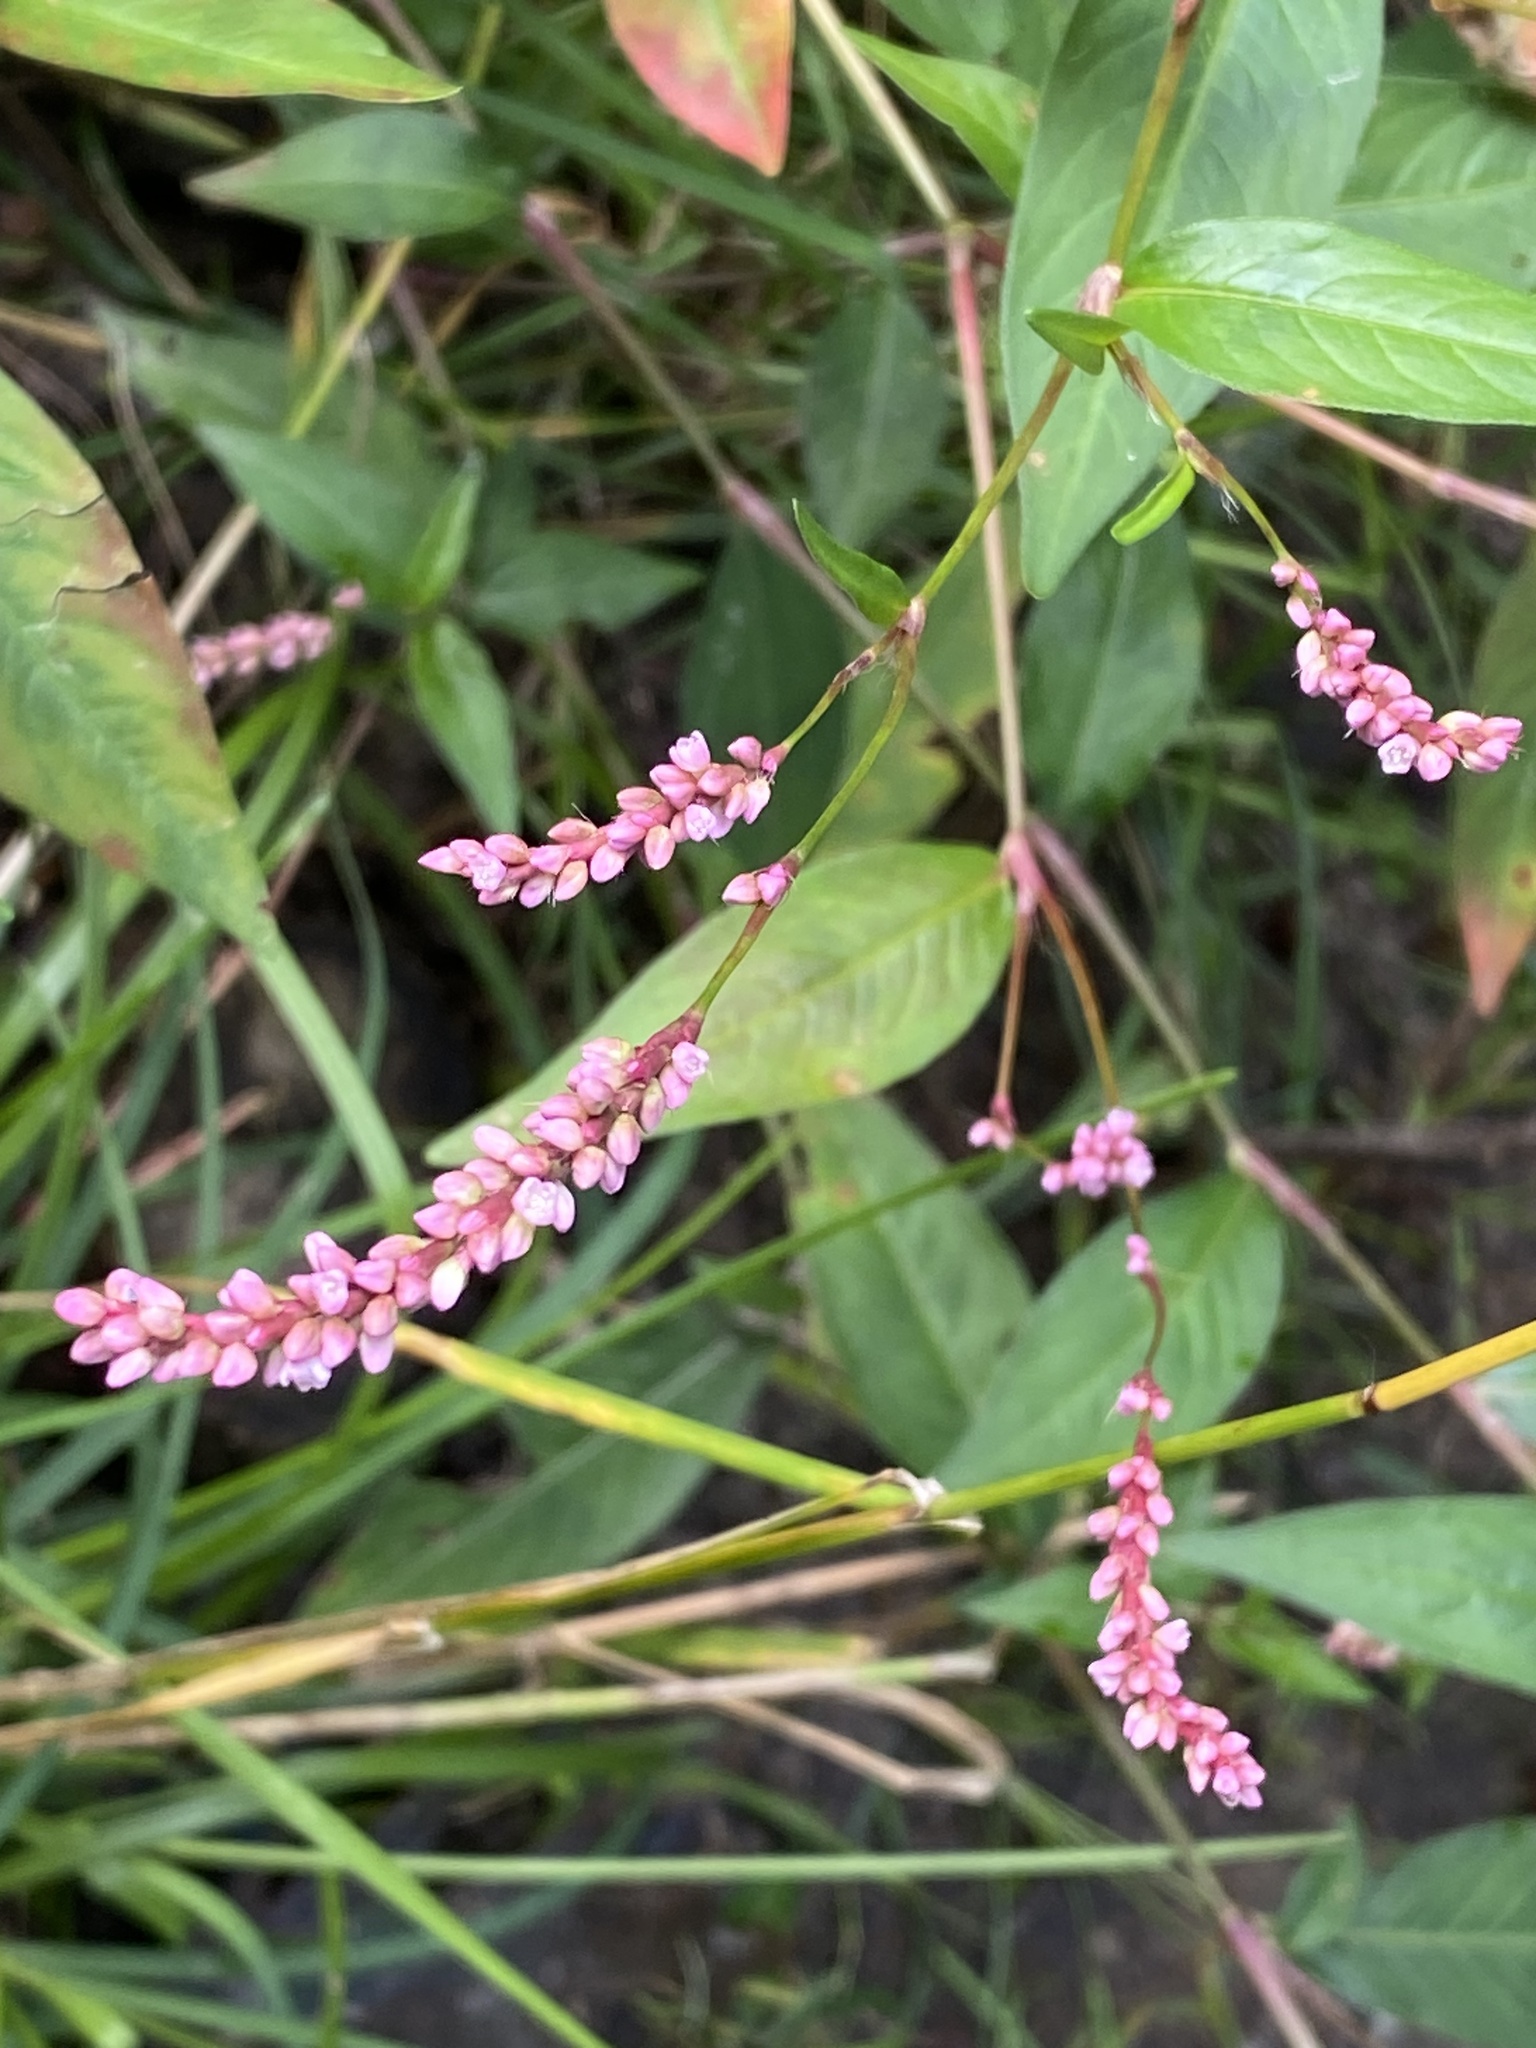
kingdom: Plantae
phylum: Tracheophyta
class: Magnoliopsida
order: Caryophyllales
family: Polygonaceae
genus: Persicaria
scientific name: Persicaria longiseta
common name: Bristly lady's-thumb
